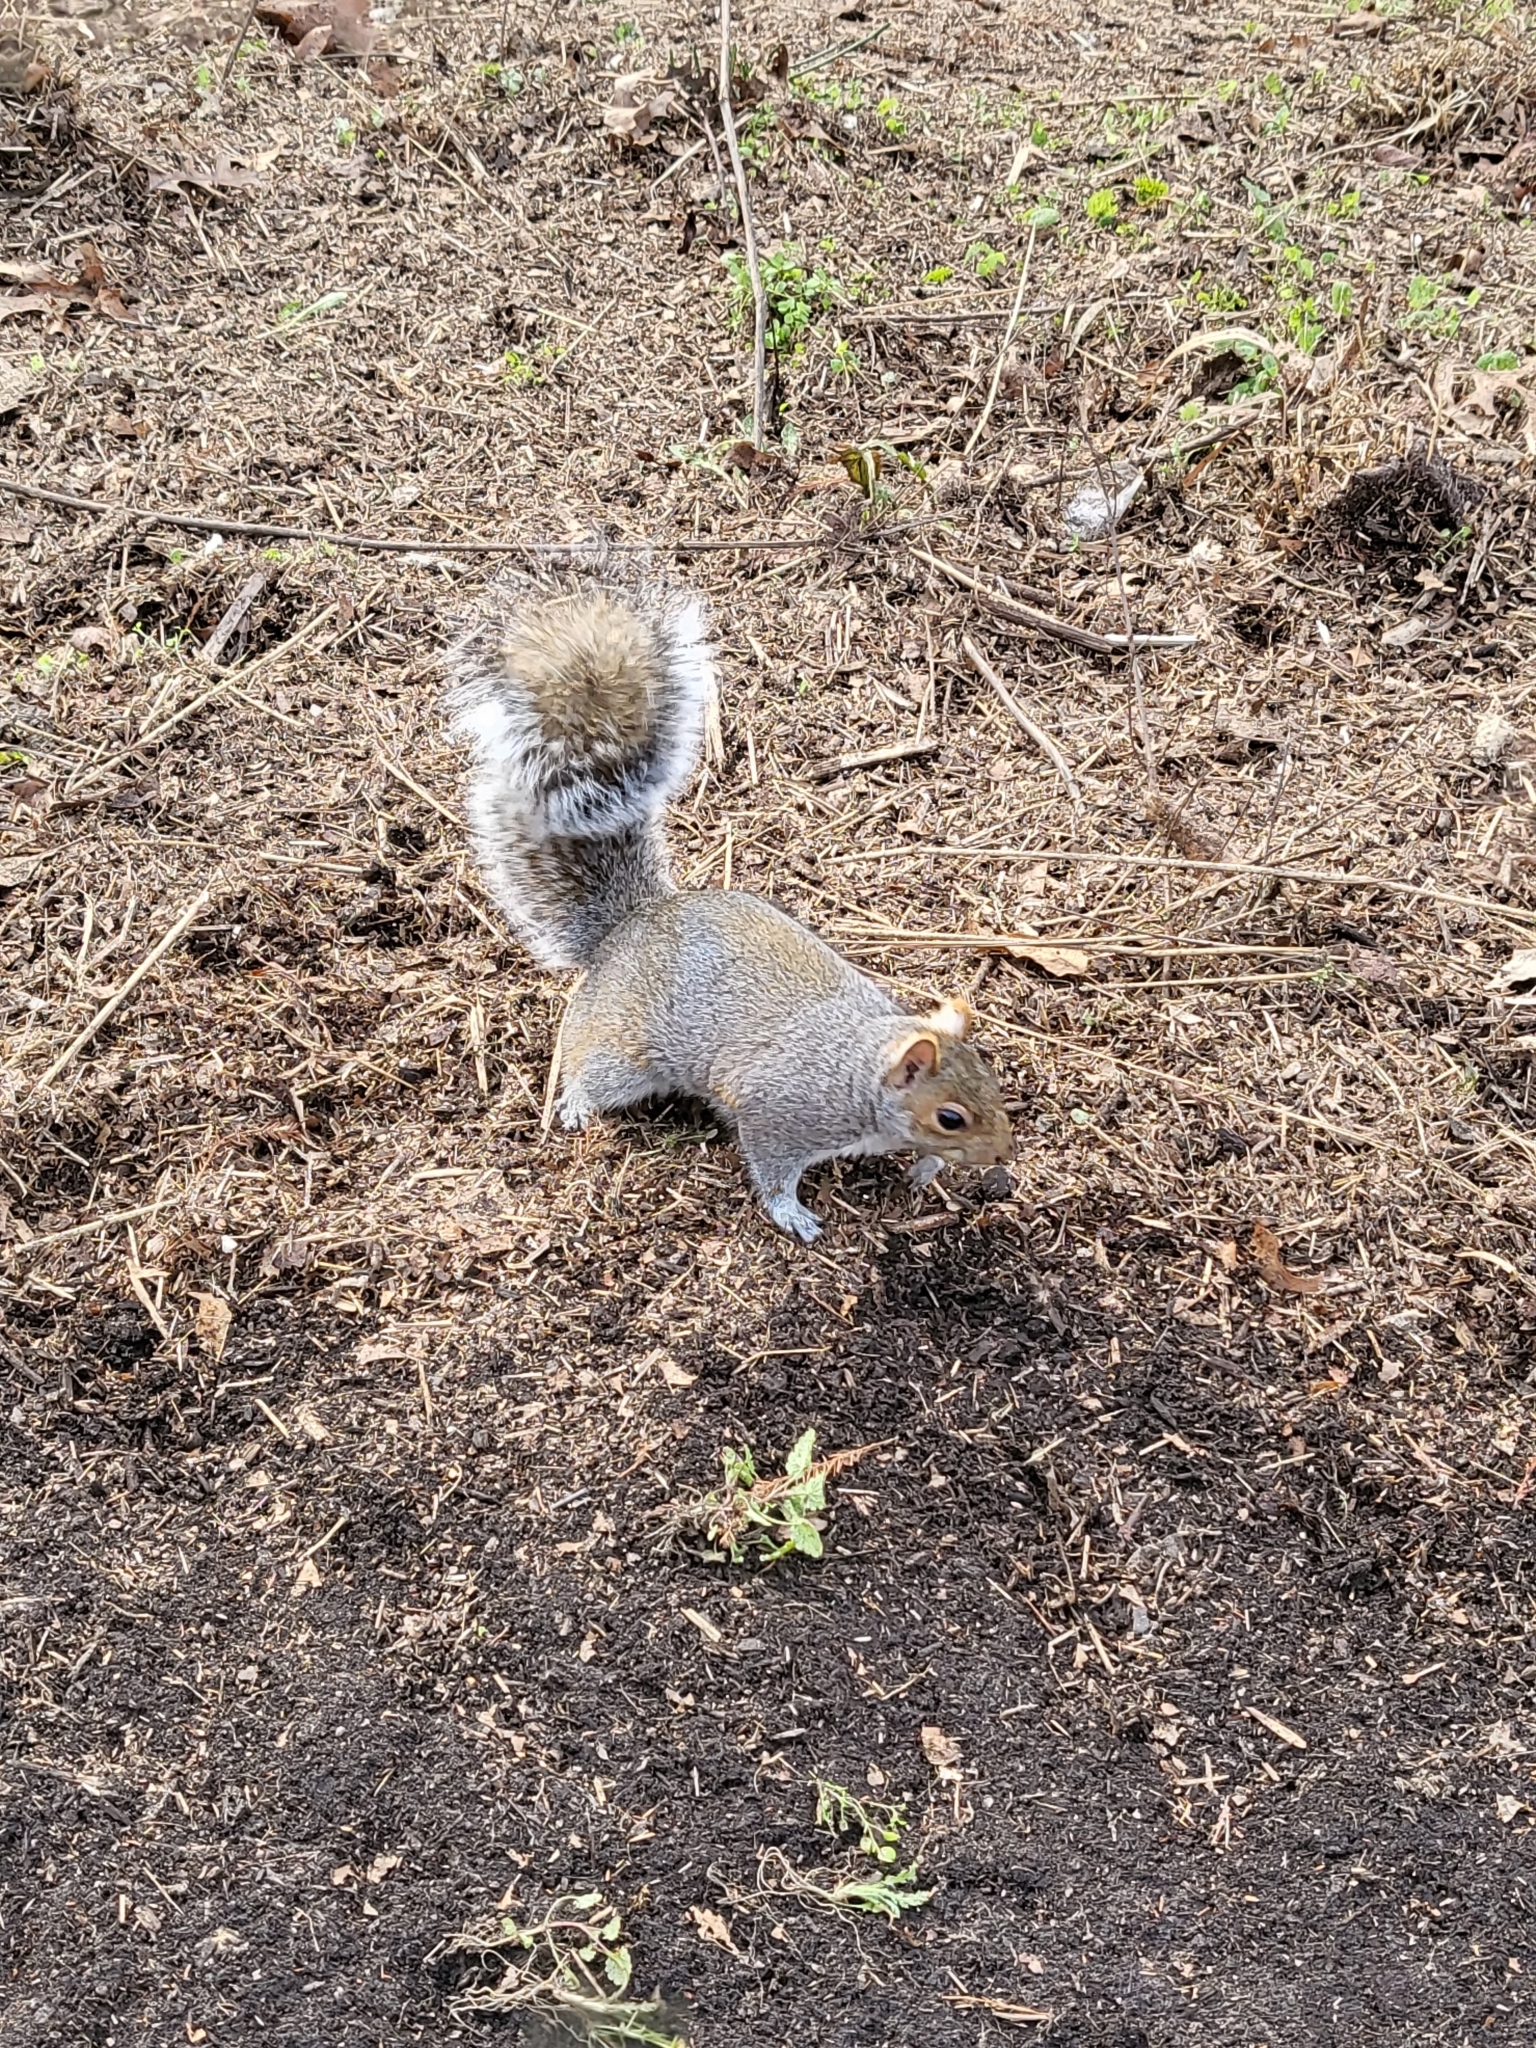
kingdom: Animalia
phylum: Chordata
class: Mammalia
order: Rodentia
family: Sciuridae
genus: Sciurus
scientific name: Sciurus carolinensis
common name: Eastern gray squirrel
